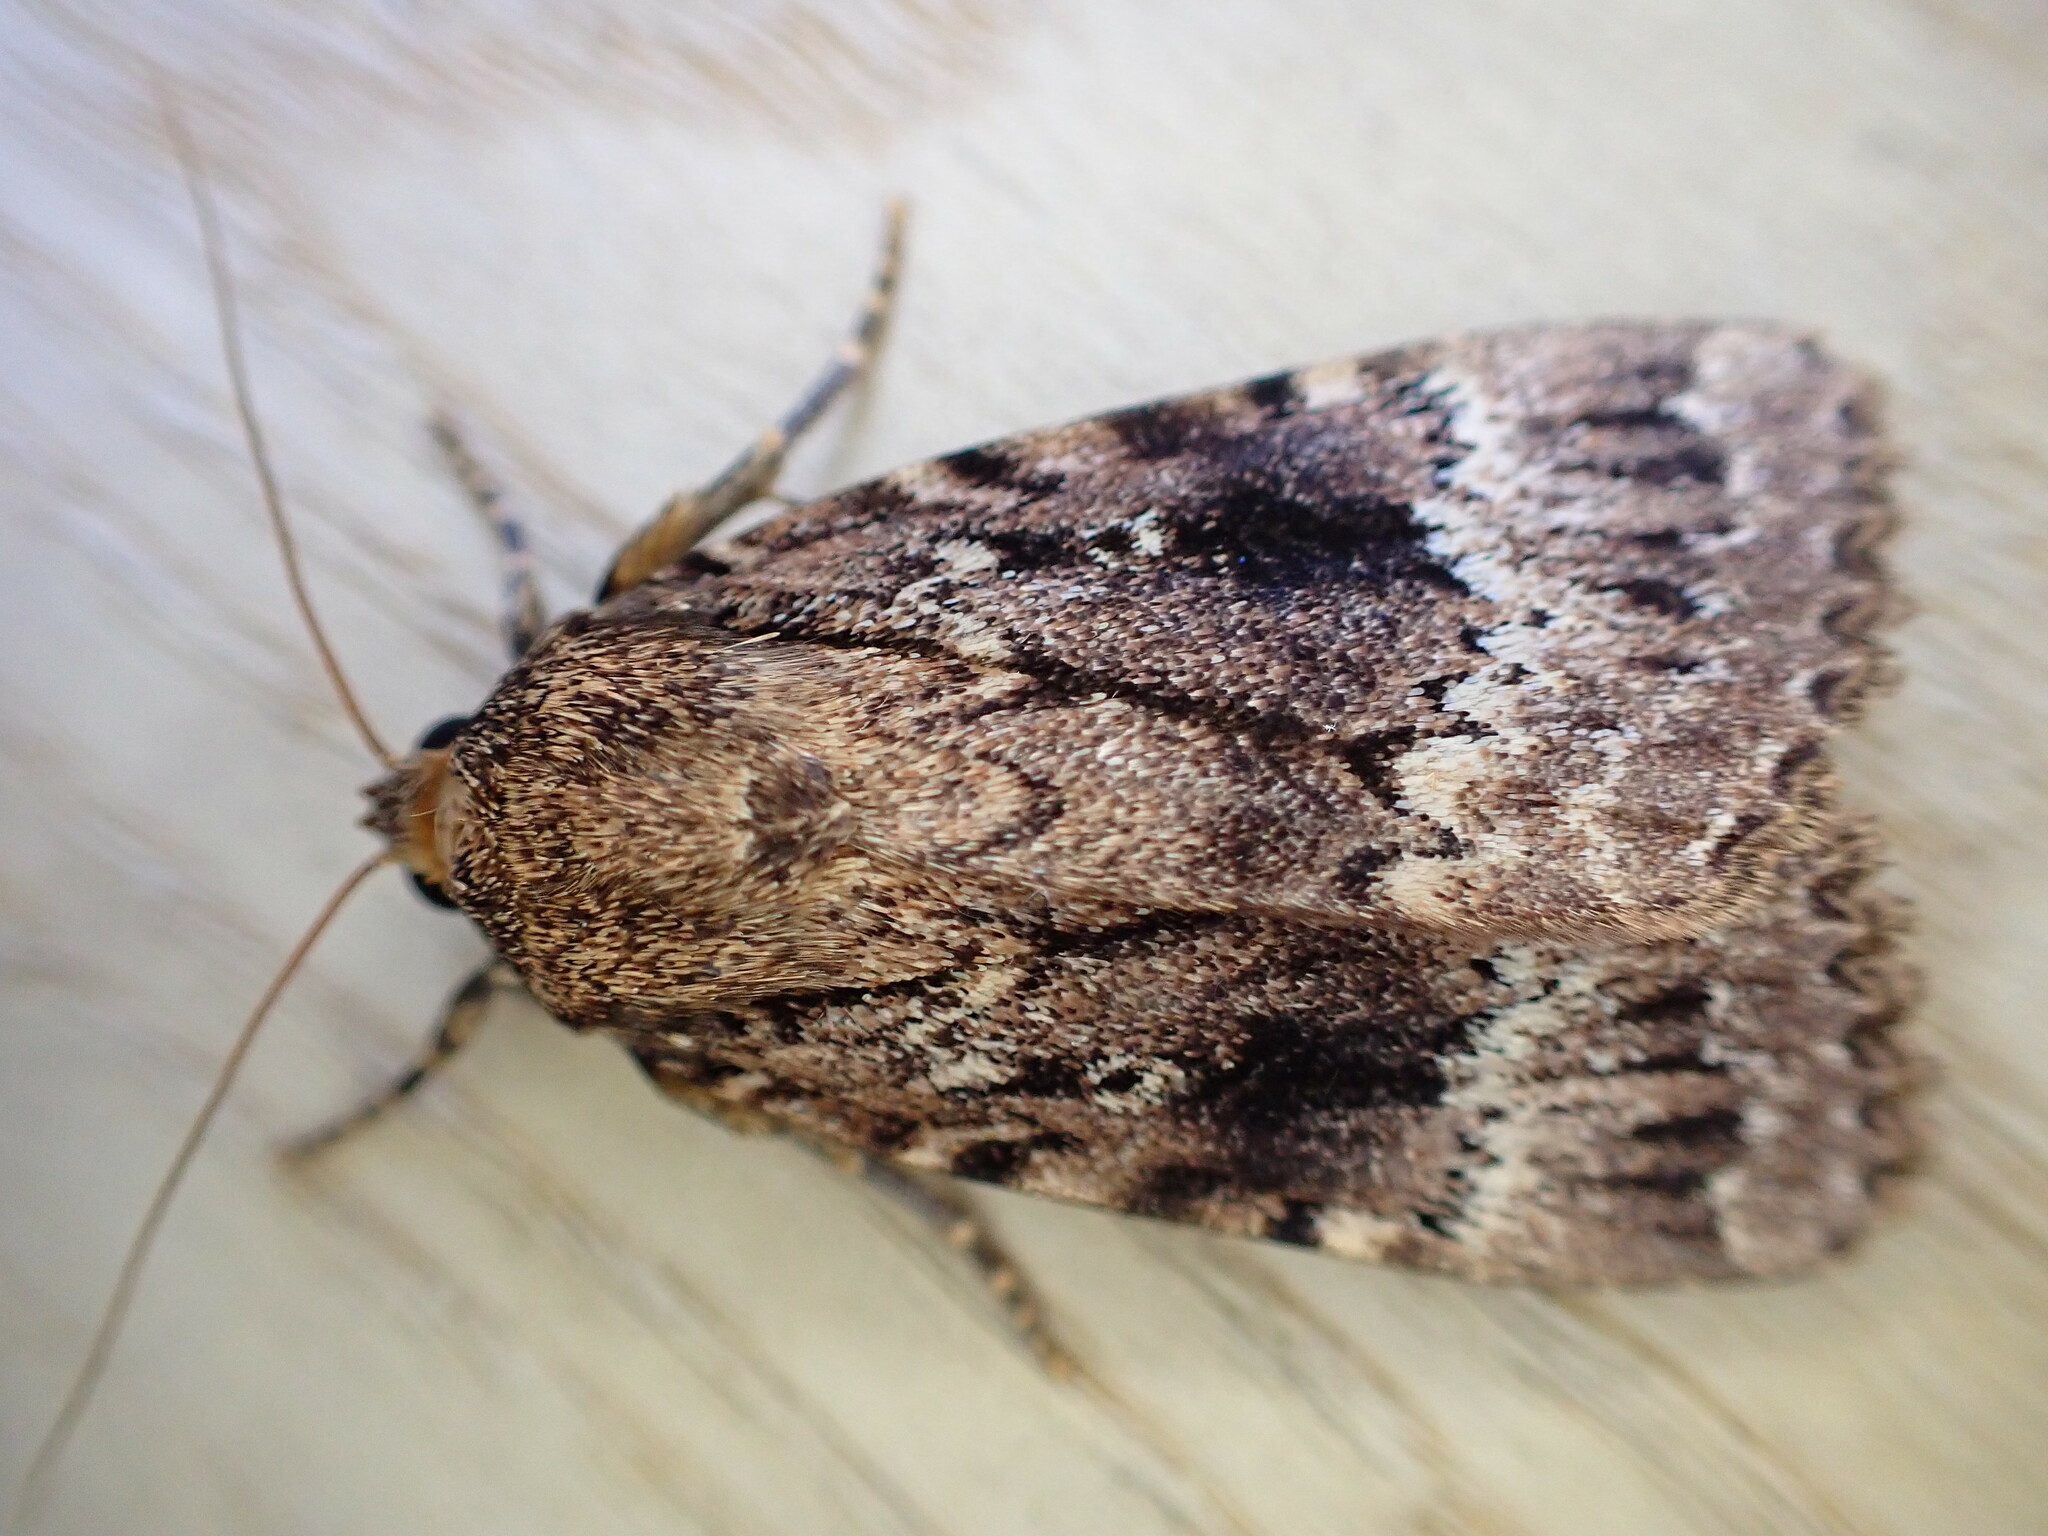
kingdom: Animalia
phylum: Arthropoda
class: Insecta
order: Lepidoptera
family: Noctuidae
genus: Amphipyra
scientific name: Amphipyra
